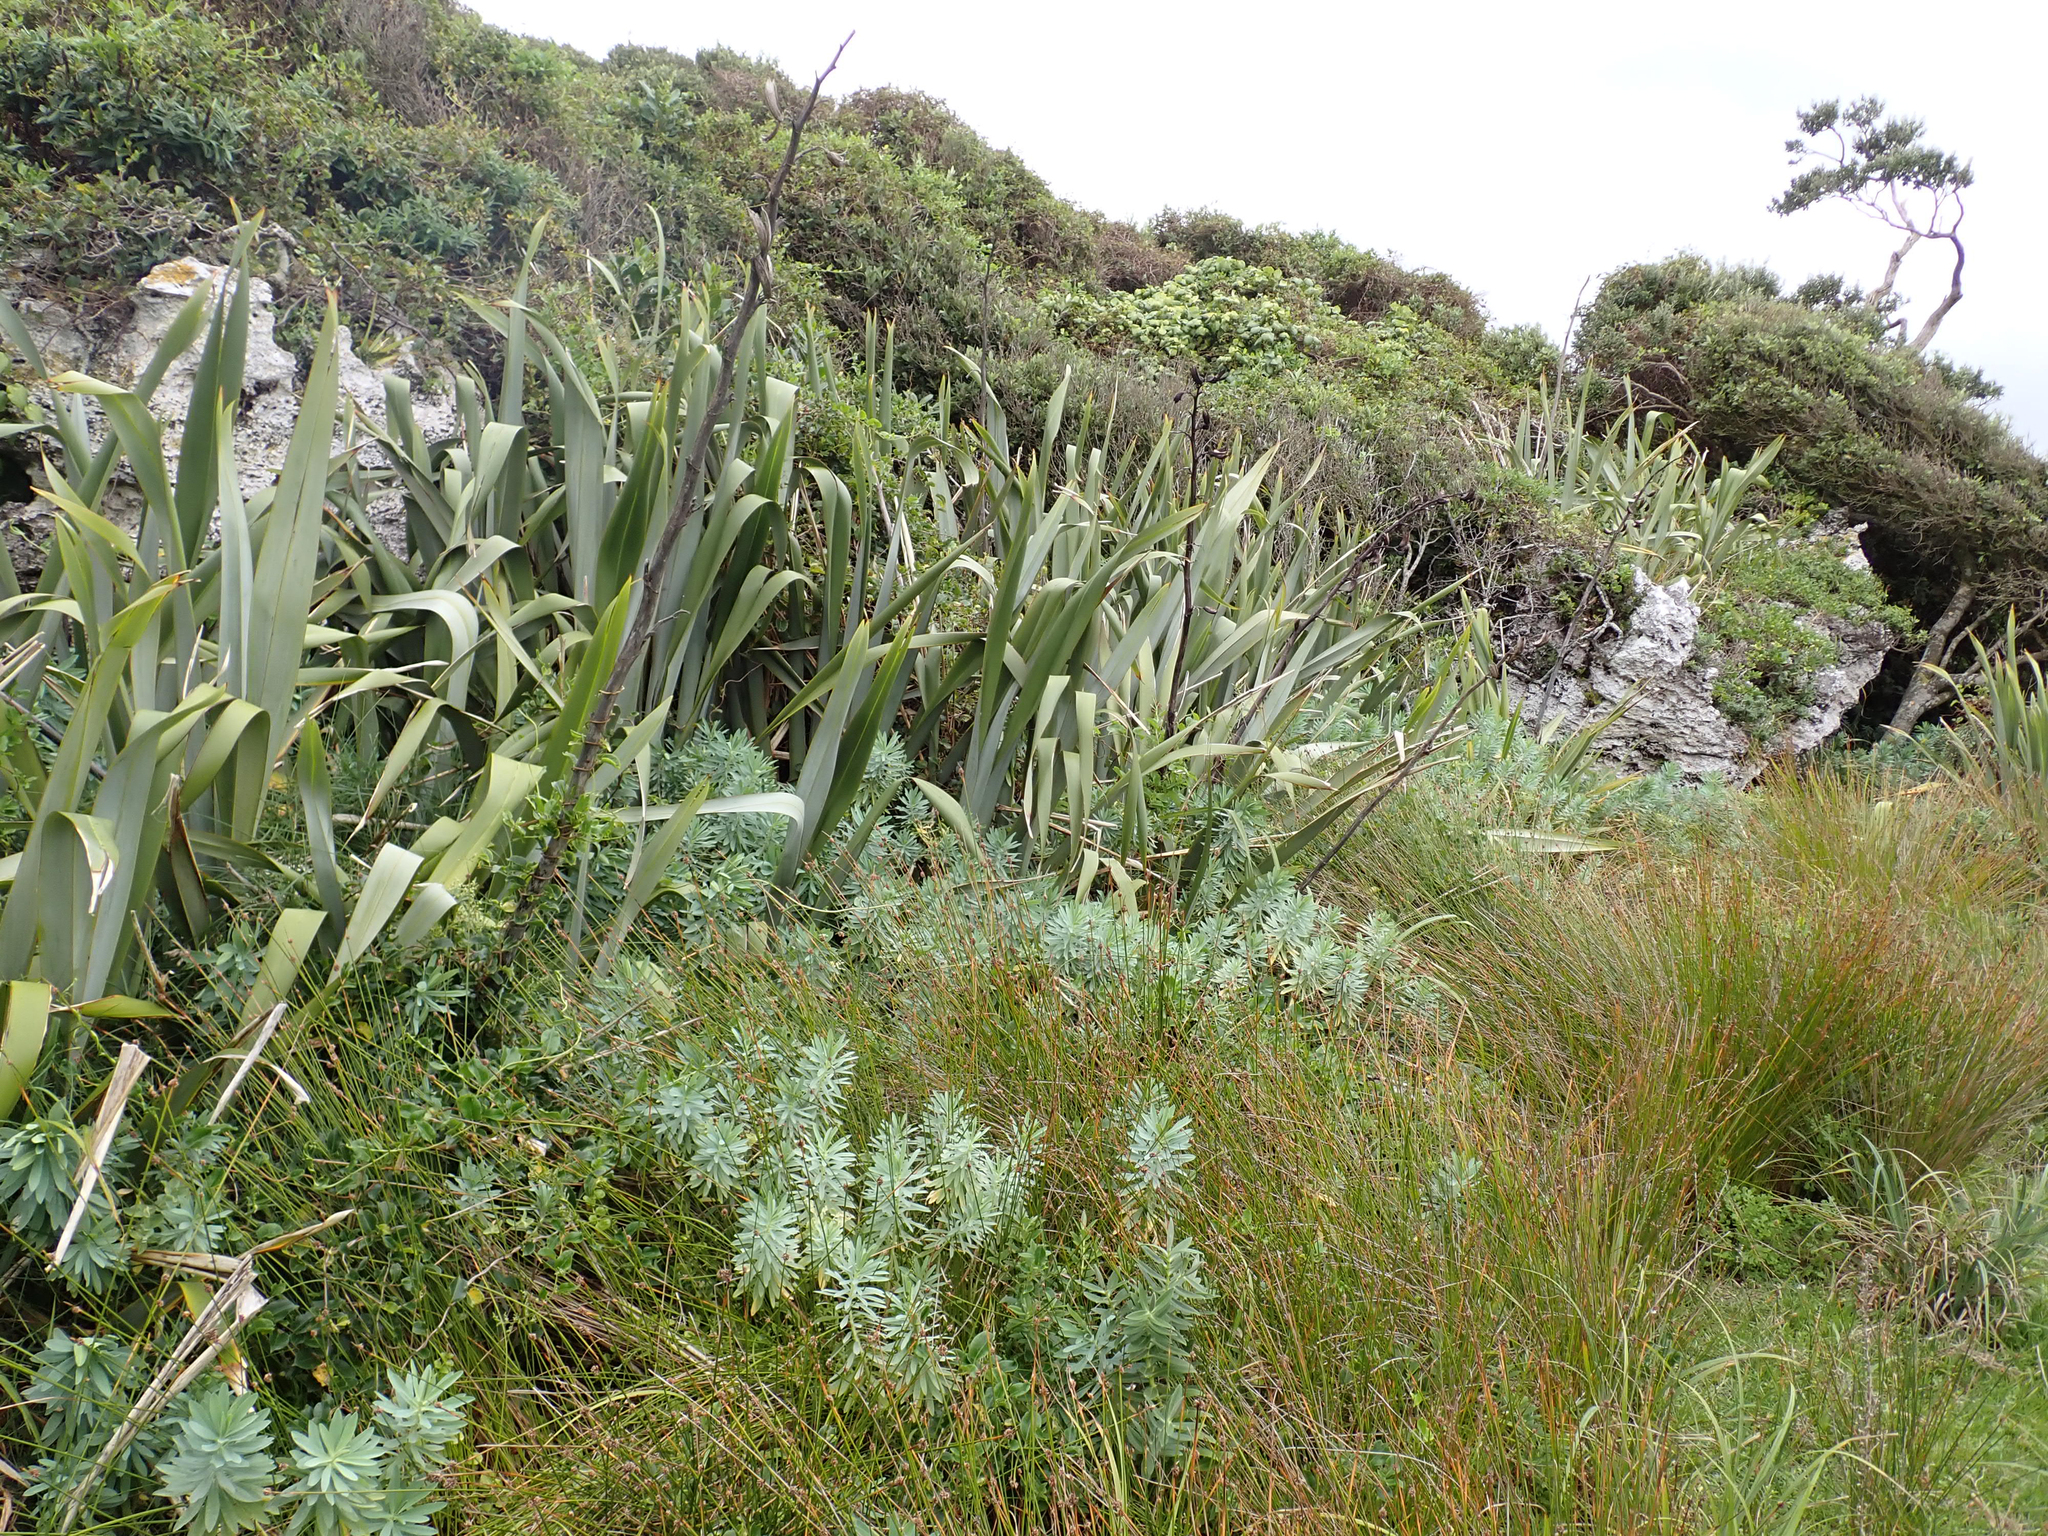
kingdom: Plantae
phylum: Tracheophyta
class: Magnoliopsida
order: Malpighiales
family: Euphorbiaceae
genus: Euphorbia
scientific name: Euphorbia glauca
